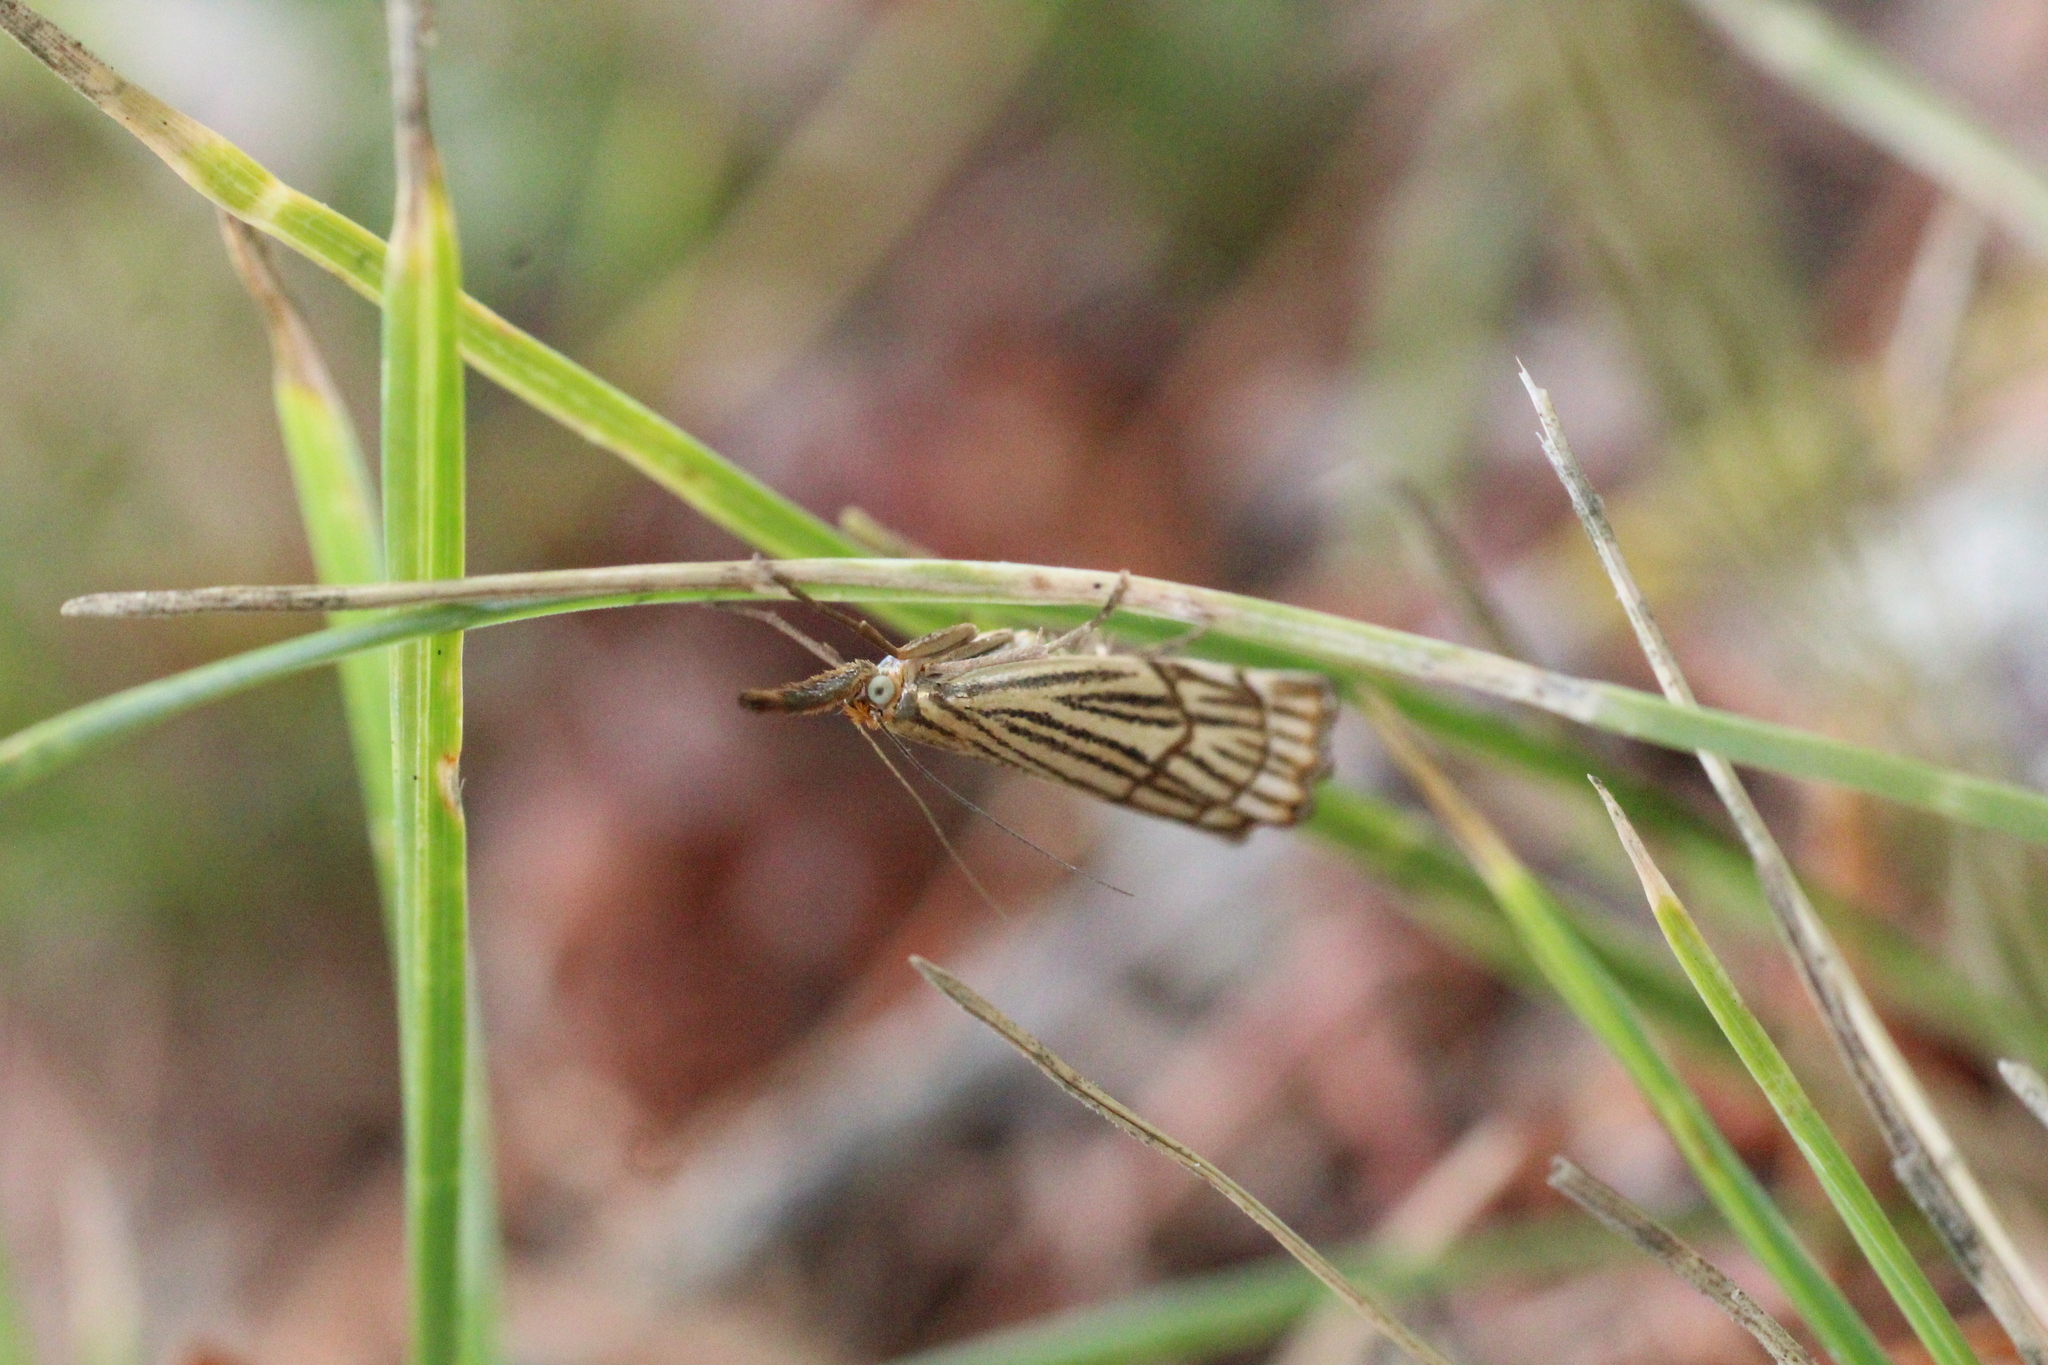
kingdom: Animalia
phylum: Arthropoda
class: Insecta
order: Lepidoptera
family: Crambidae
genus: Chrysocrambus
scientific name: Chrysocrambus Chrysocramboides craterellus
